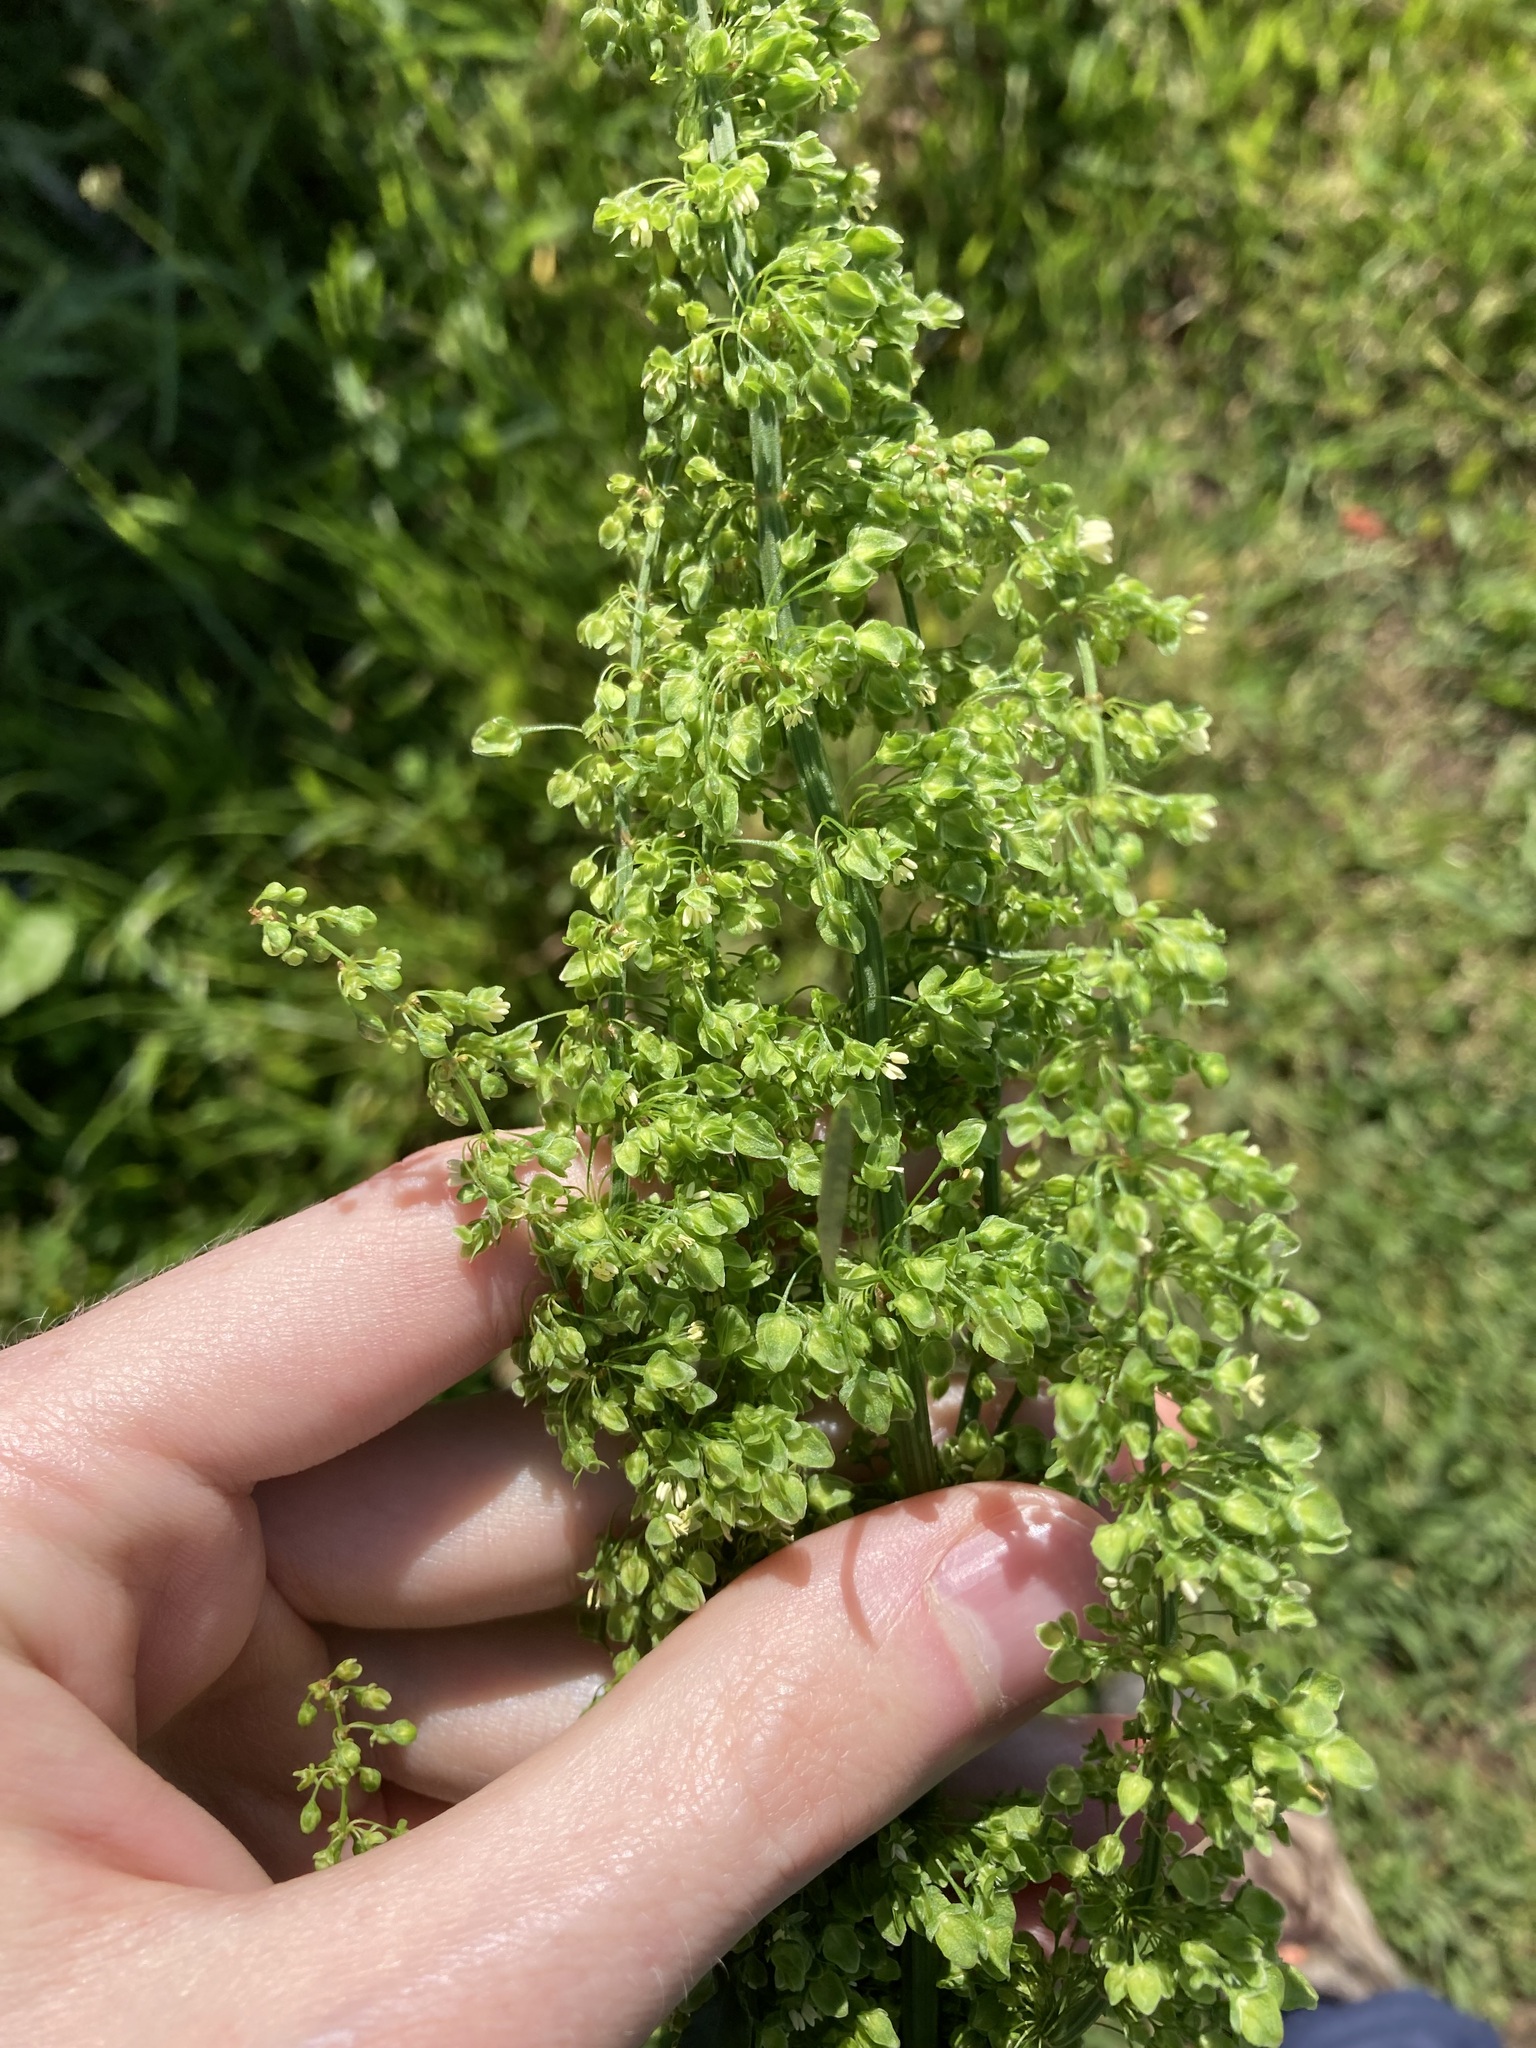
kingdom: Plantae
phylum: Tracheophyta
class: Magnoliopsida
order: Caryophyllales
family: Polygonaceae
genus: Rumex
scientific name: Rumex crispus
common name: Curled dock
